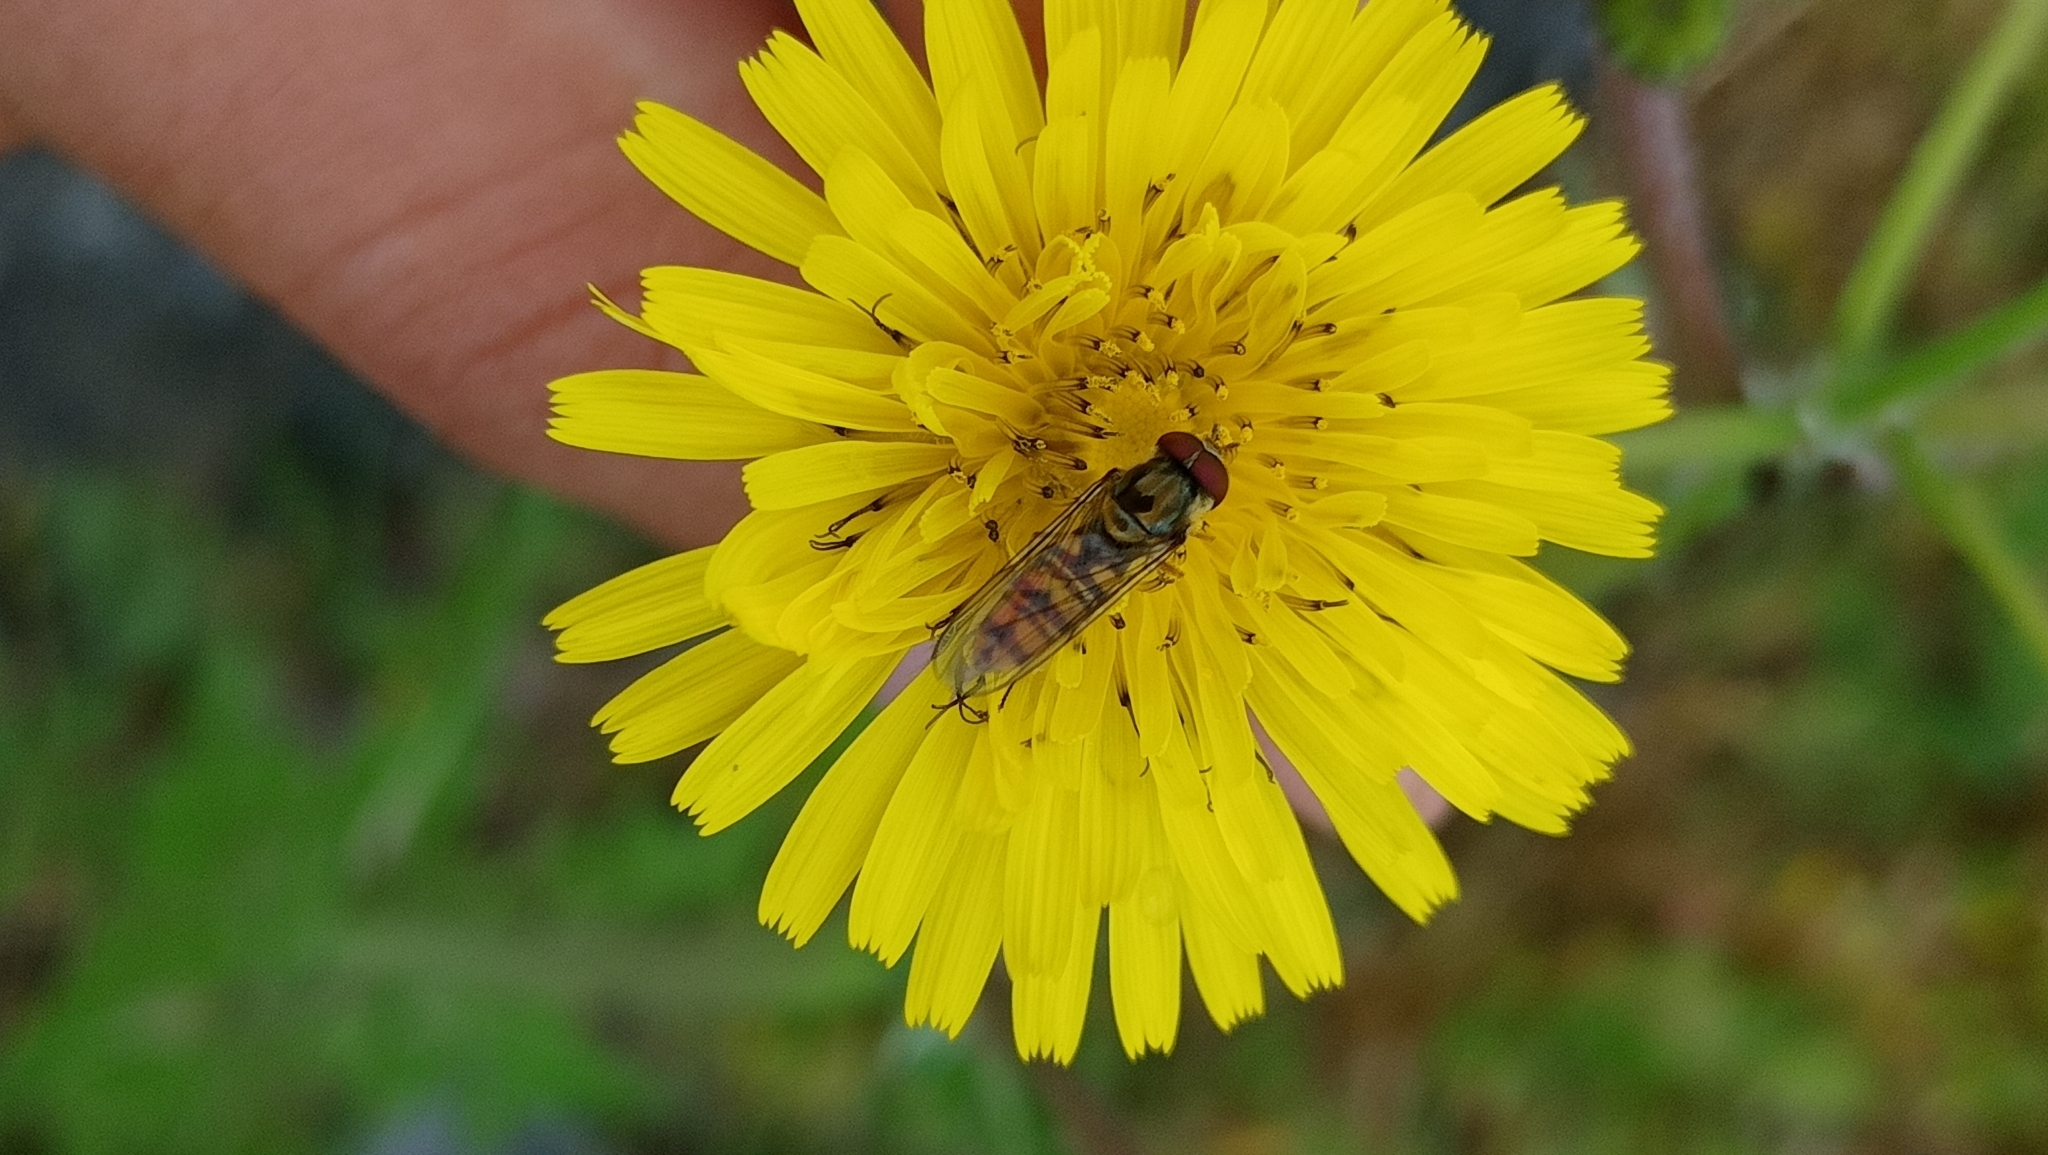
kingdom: Animalia
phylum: Arthropoda
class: Insecta
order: Diptera
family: Syrphidae
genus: Episyrphus
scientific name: Episyrphus balteatus
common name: Marmalade hoverfly
